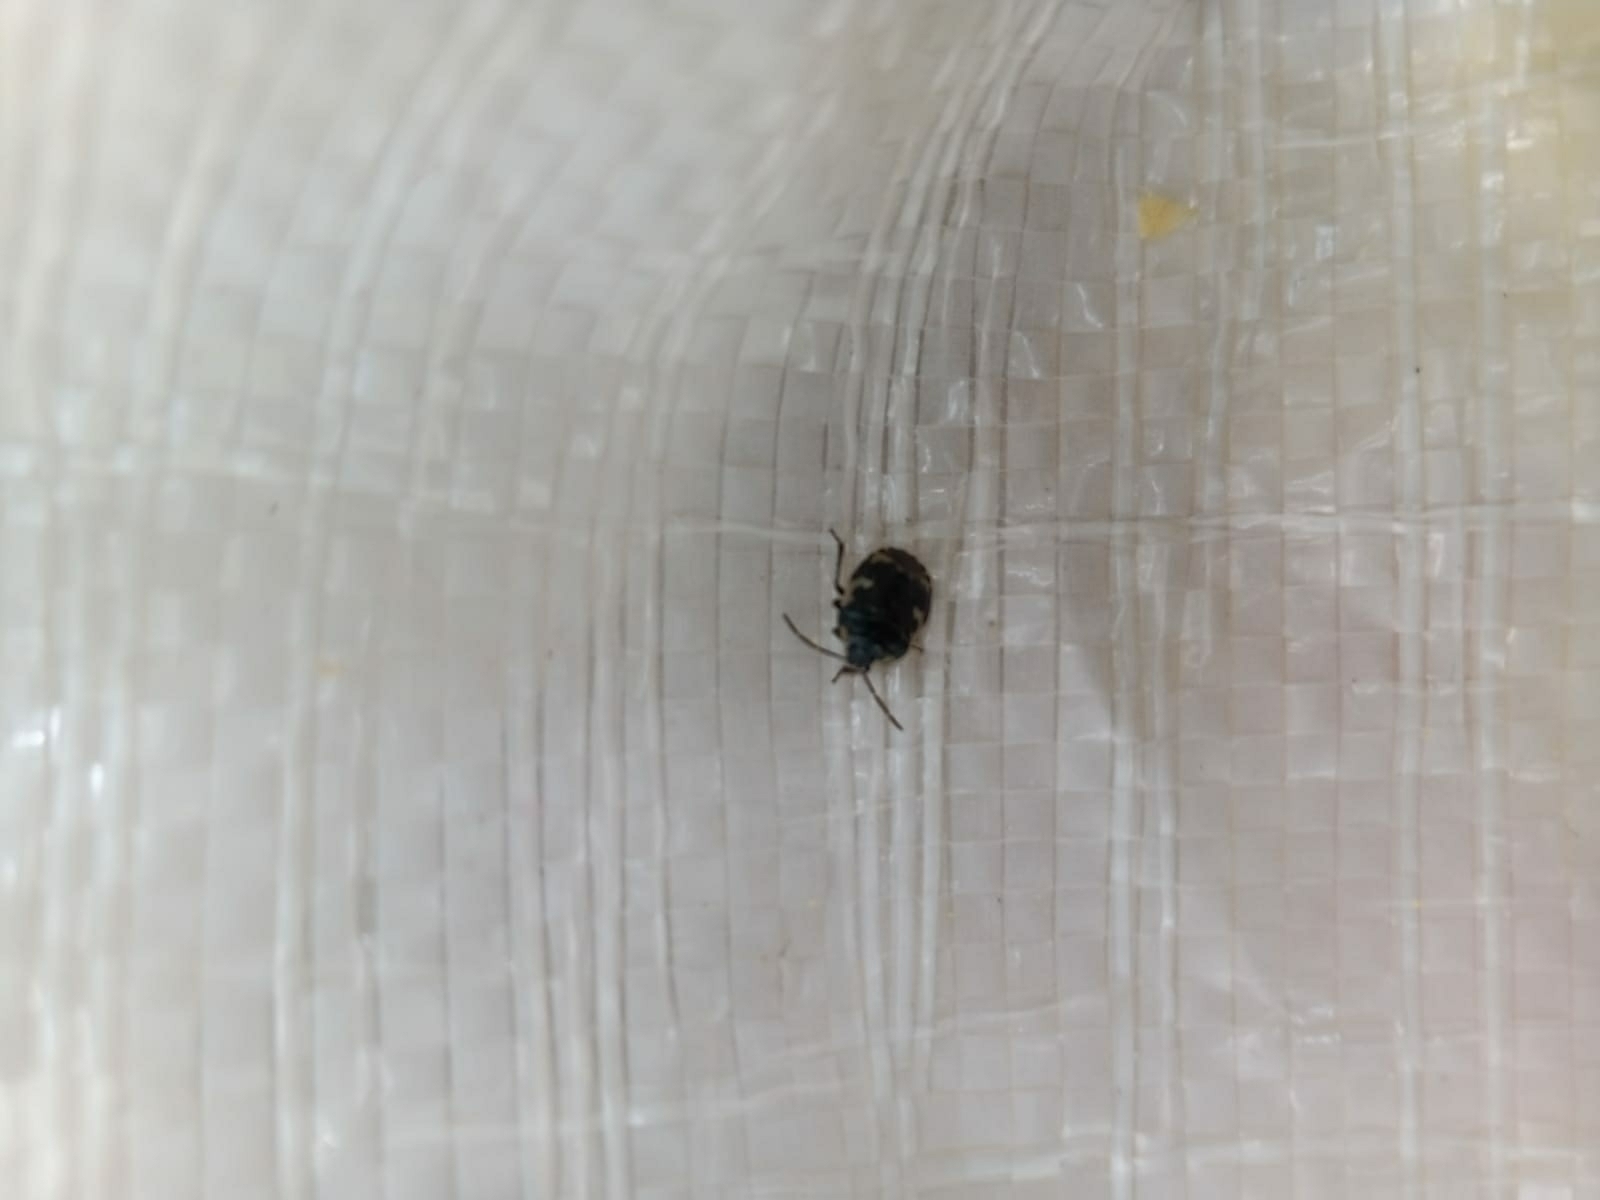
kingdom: Animalia
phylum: Arthropoda
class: Insecta
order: Hemiptera
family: Cydnidae
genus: Tritomegas
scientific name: Tritomegas bicolor
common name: Pied shieldbug
